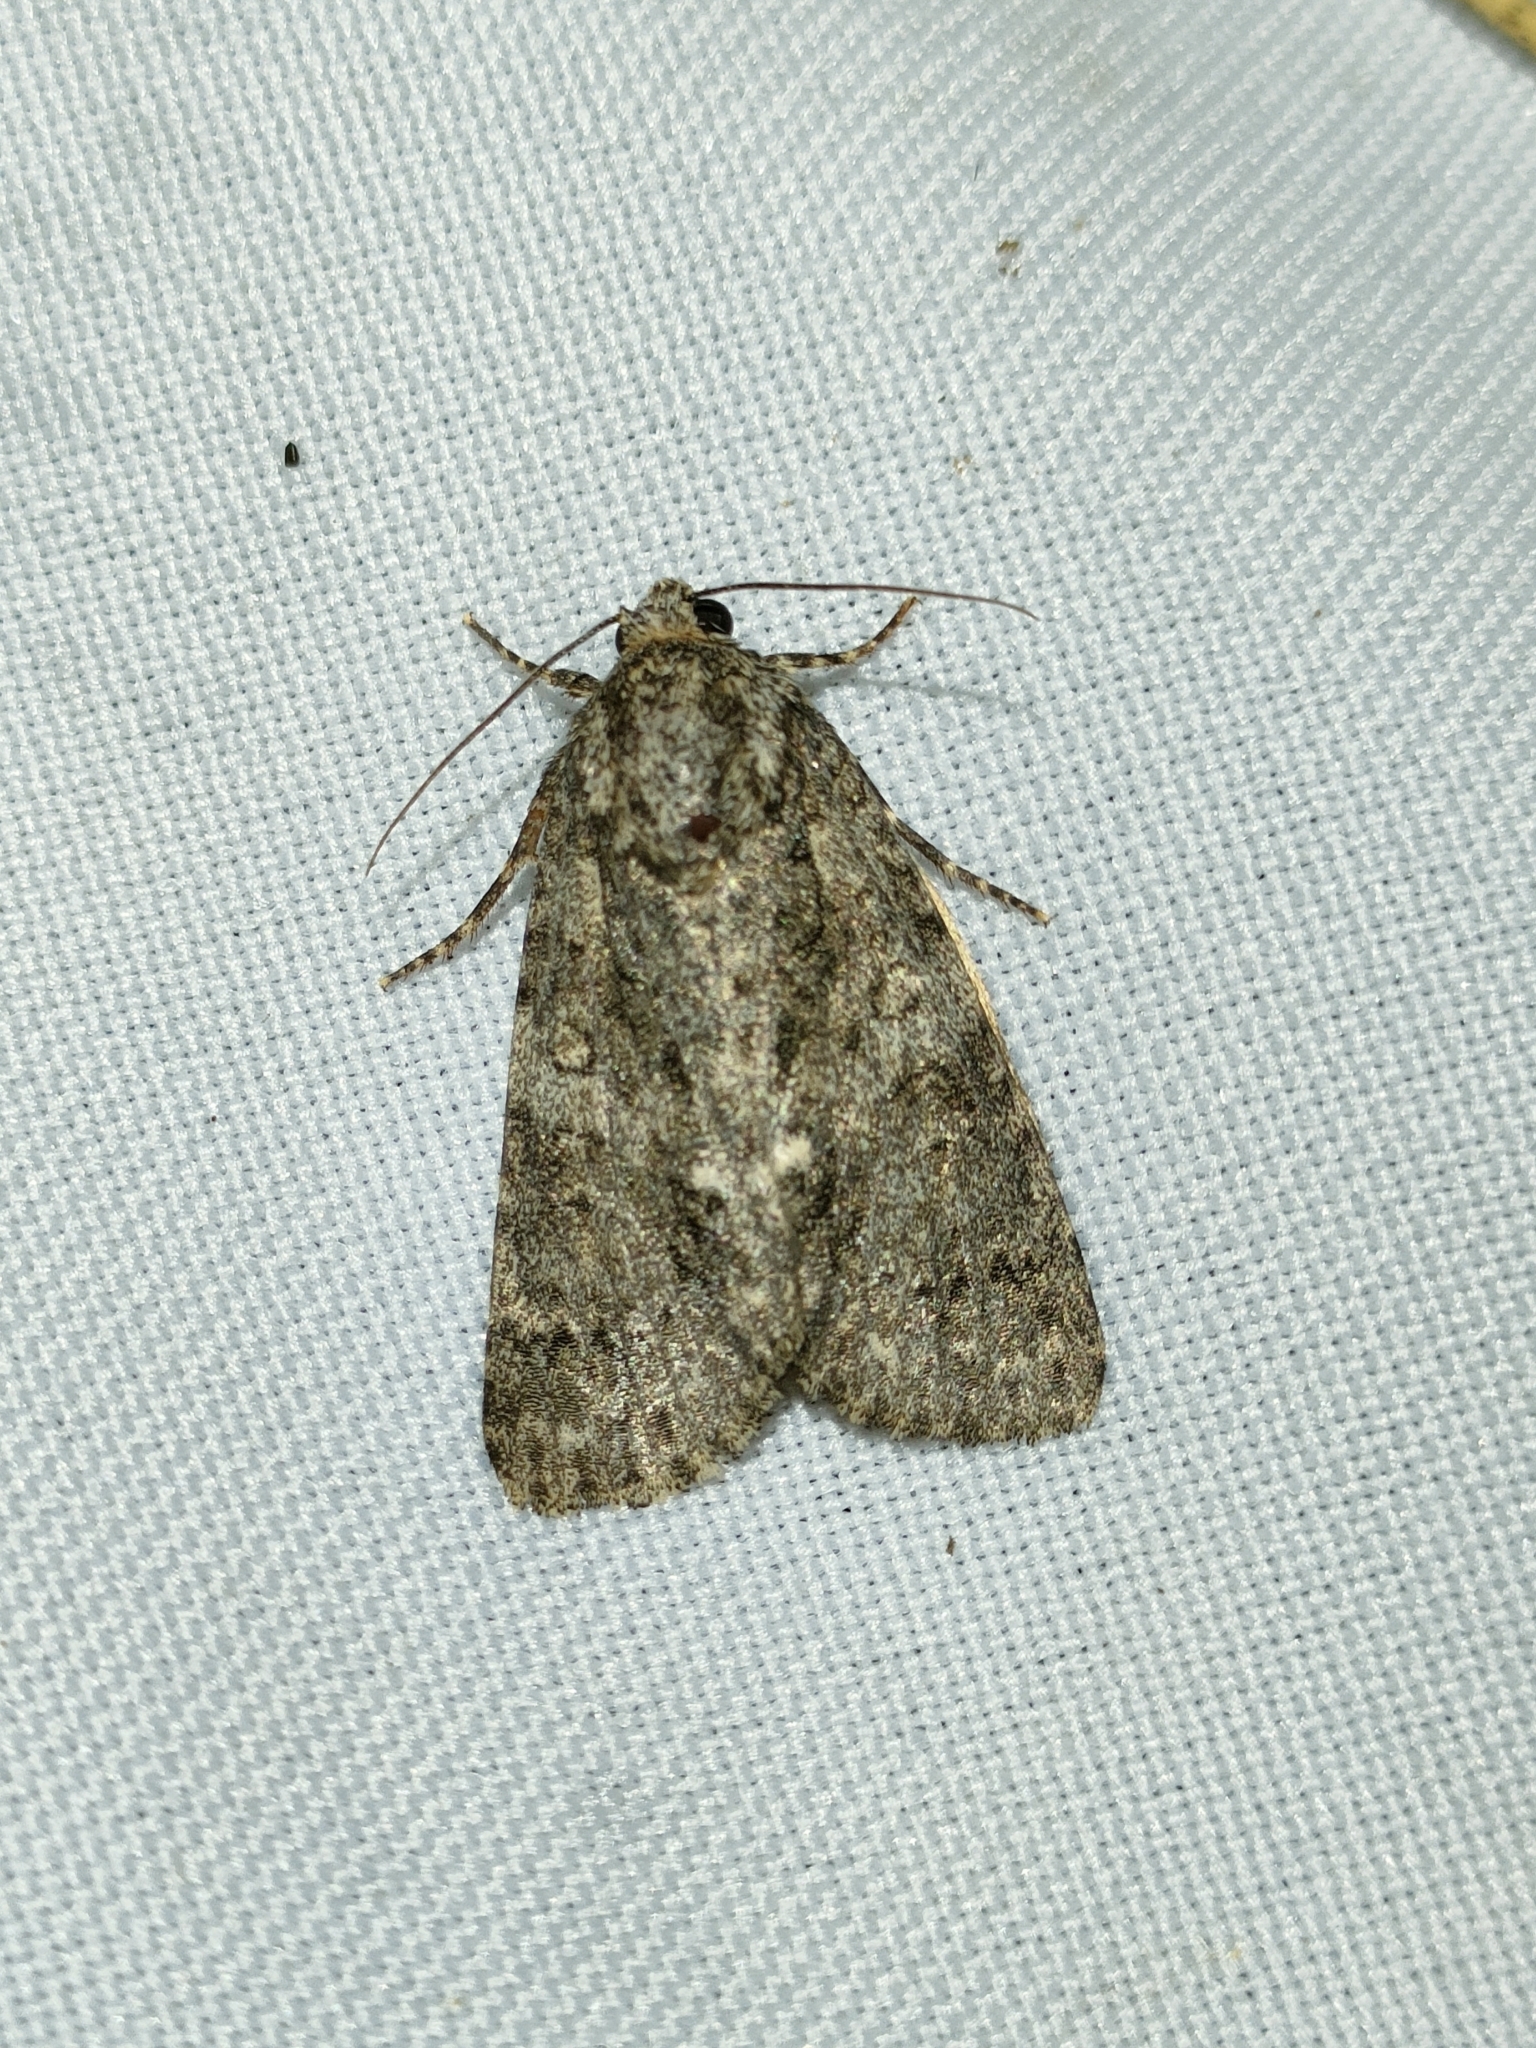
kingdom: Animalia
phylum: Arthropoda
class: Insecta
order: Lepidoptera
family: Noctuidae
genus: Acronicta
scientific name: Acronicta rumicis
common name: Knot grass
